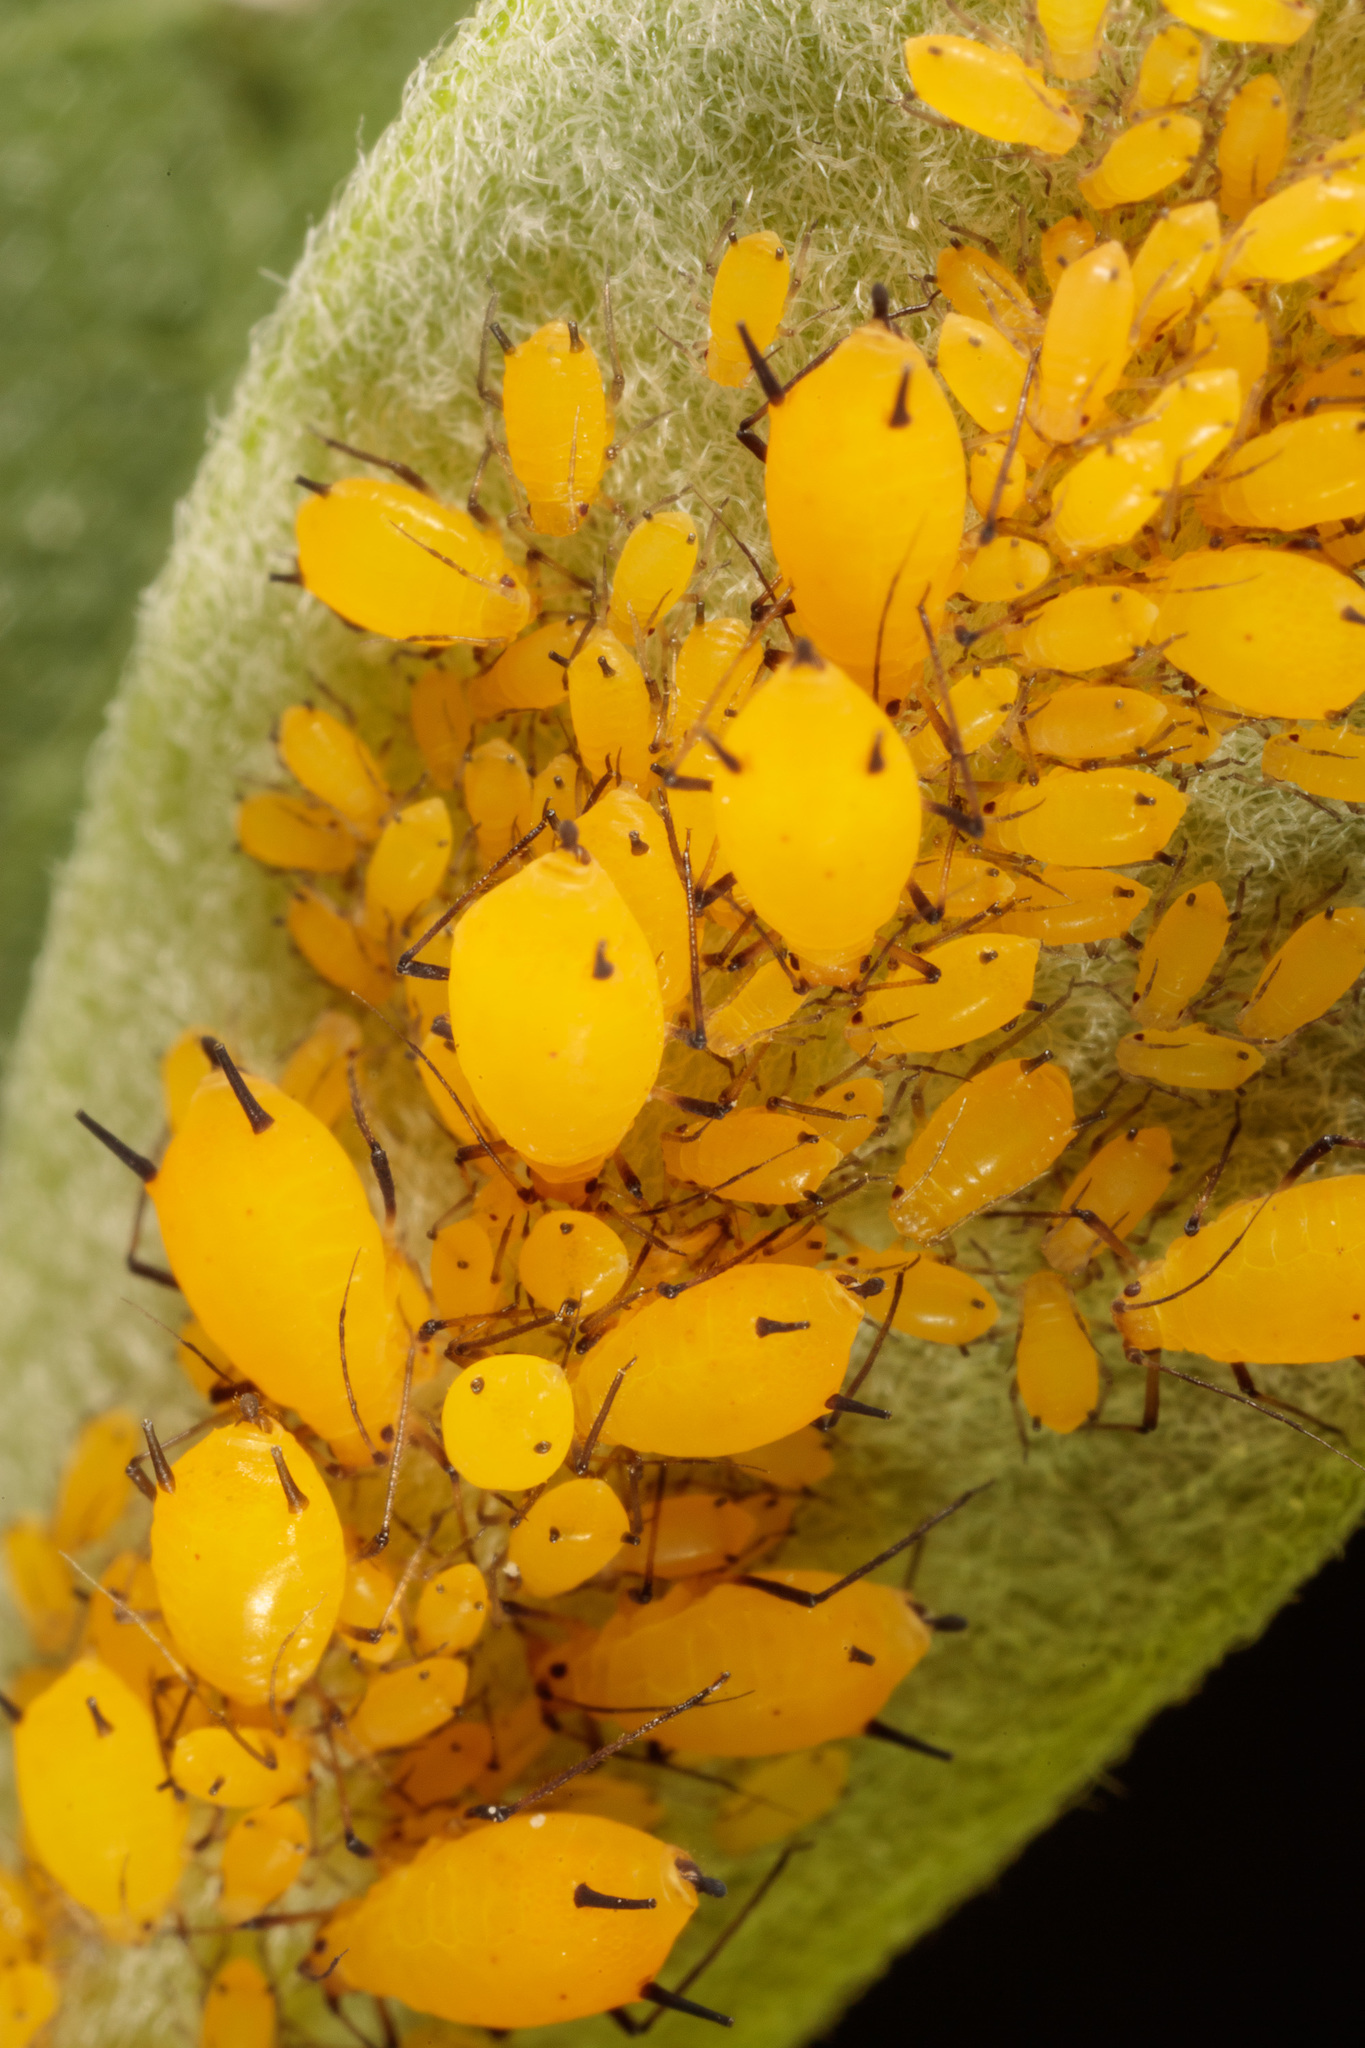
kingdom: Animalia
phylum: Arthropoda
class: Insecta
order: Hemiptera
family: Aphididae
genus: Aphis
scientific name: Aphis nerii
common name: Oleander aphid
